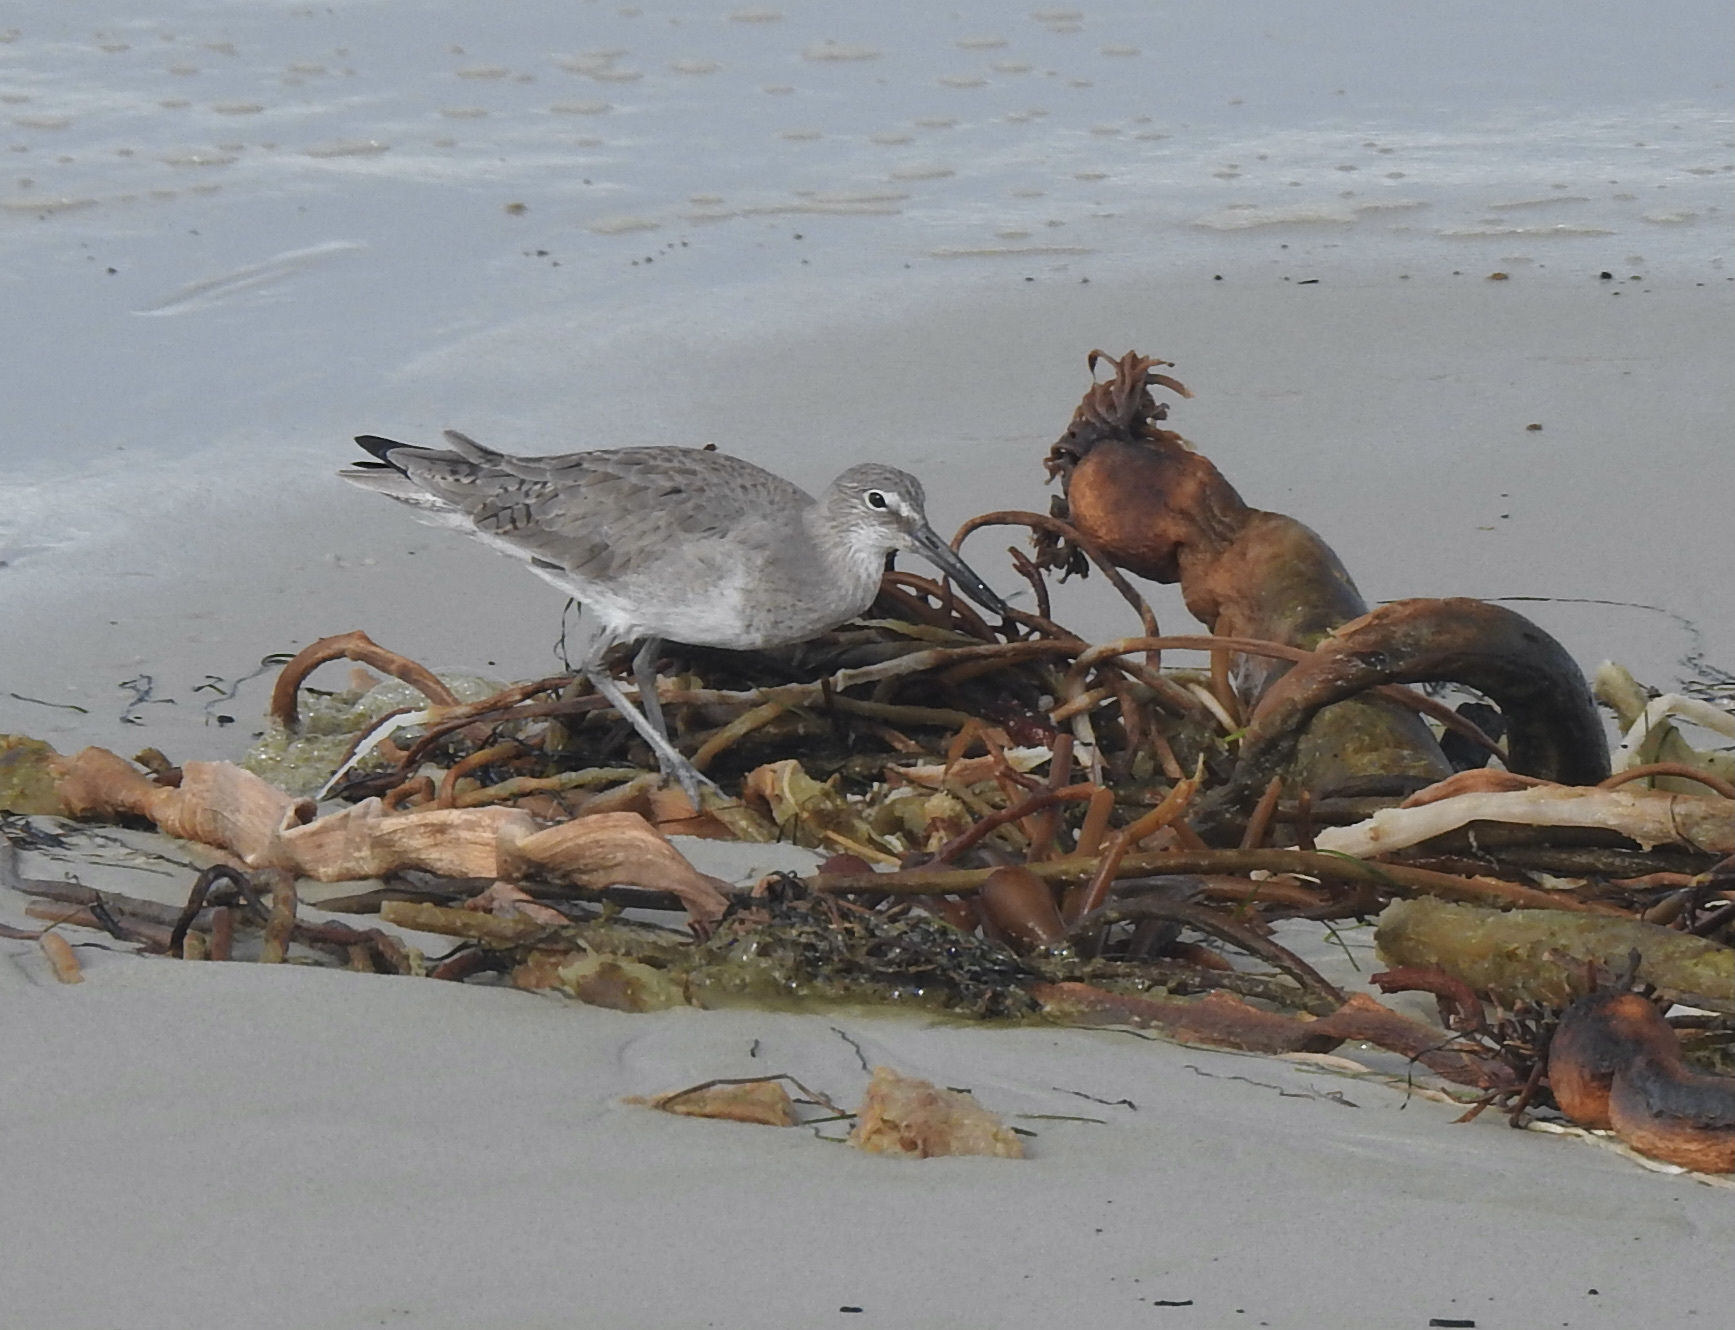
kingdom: Animalia
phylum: Chordata
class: Aves
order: Charadriiformes
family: Scolopacidae
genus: Tringa
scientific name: Tringa semipalmata
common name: Willet
